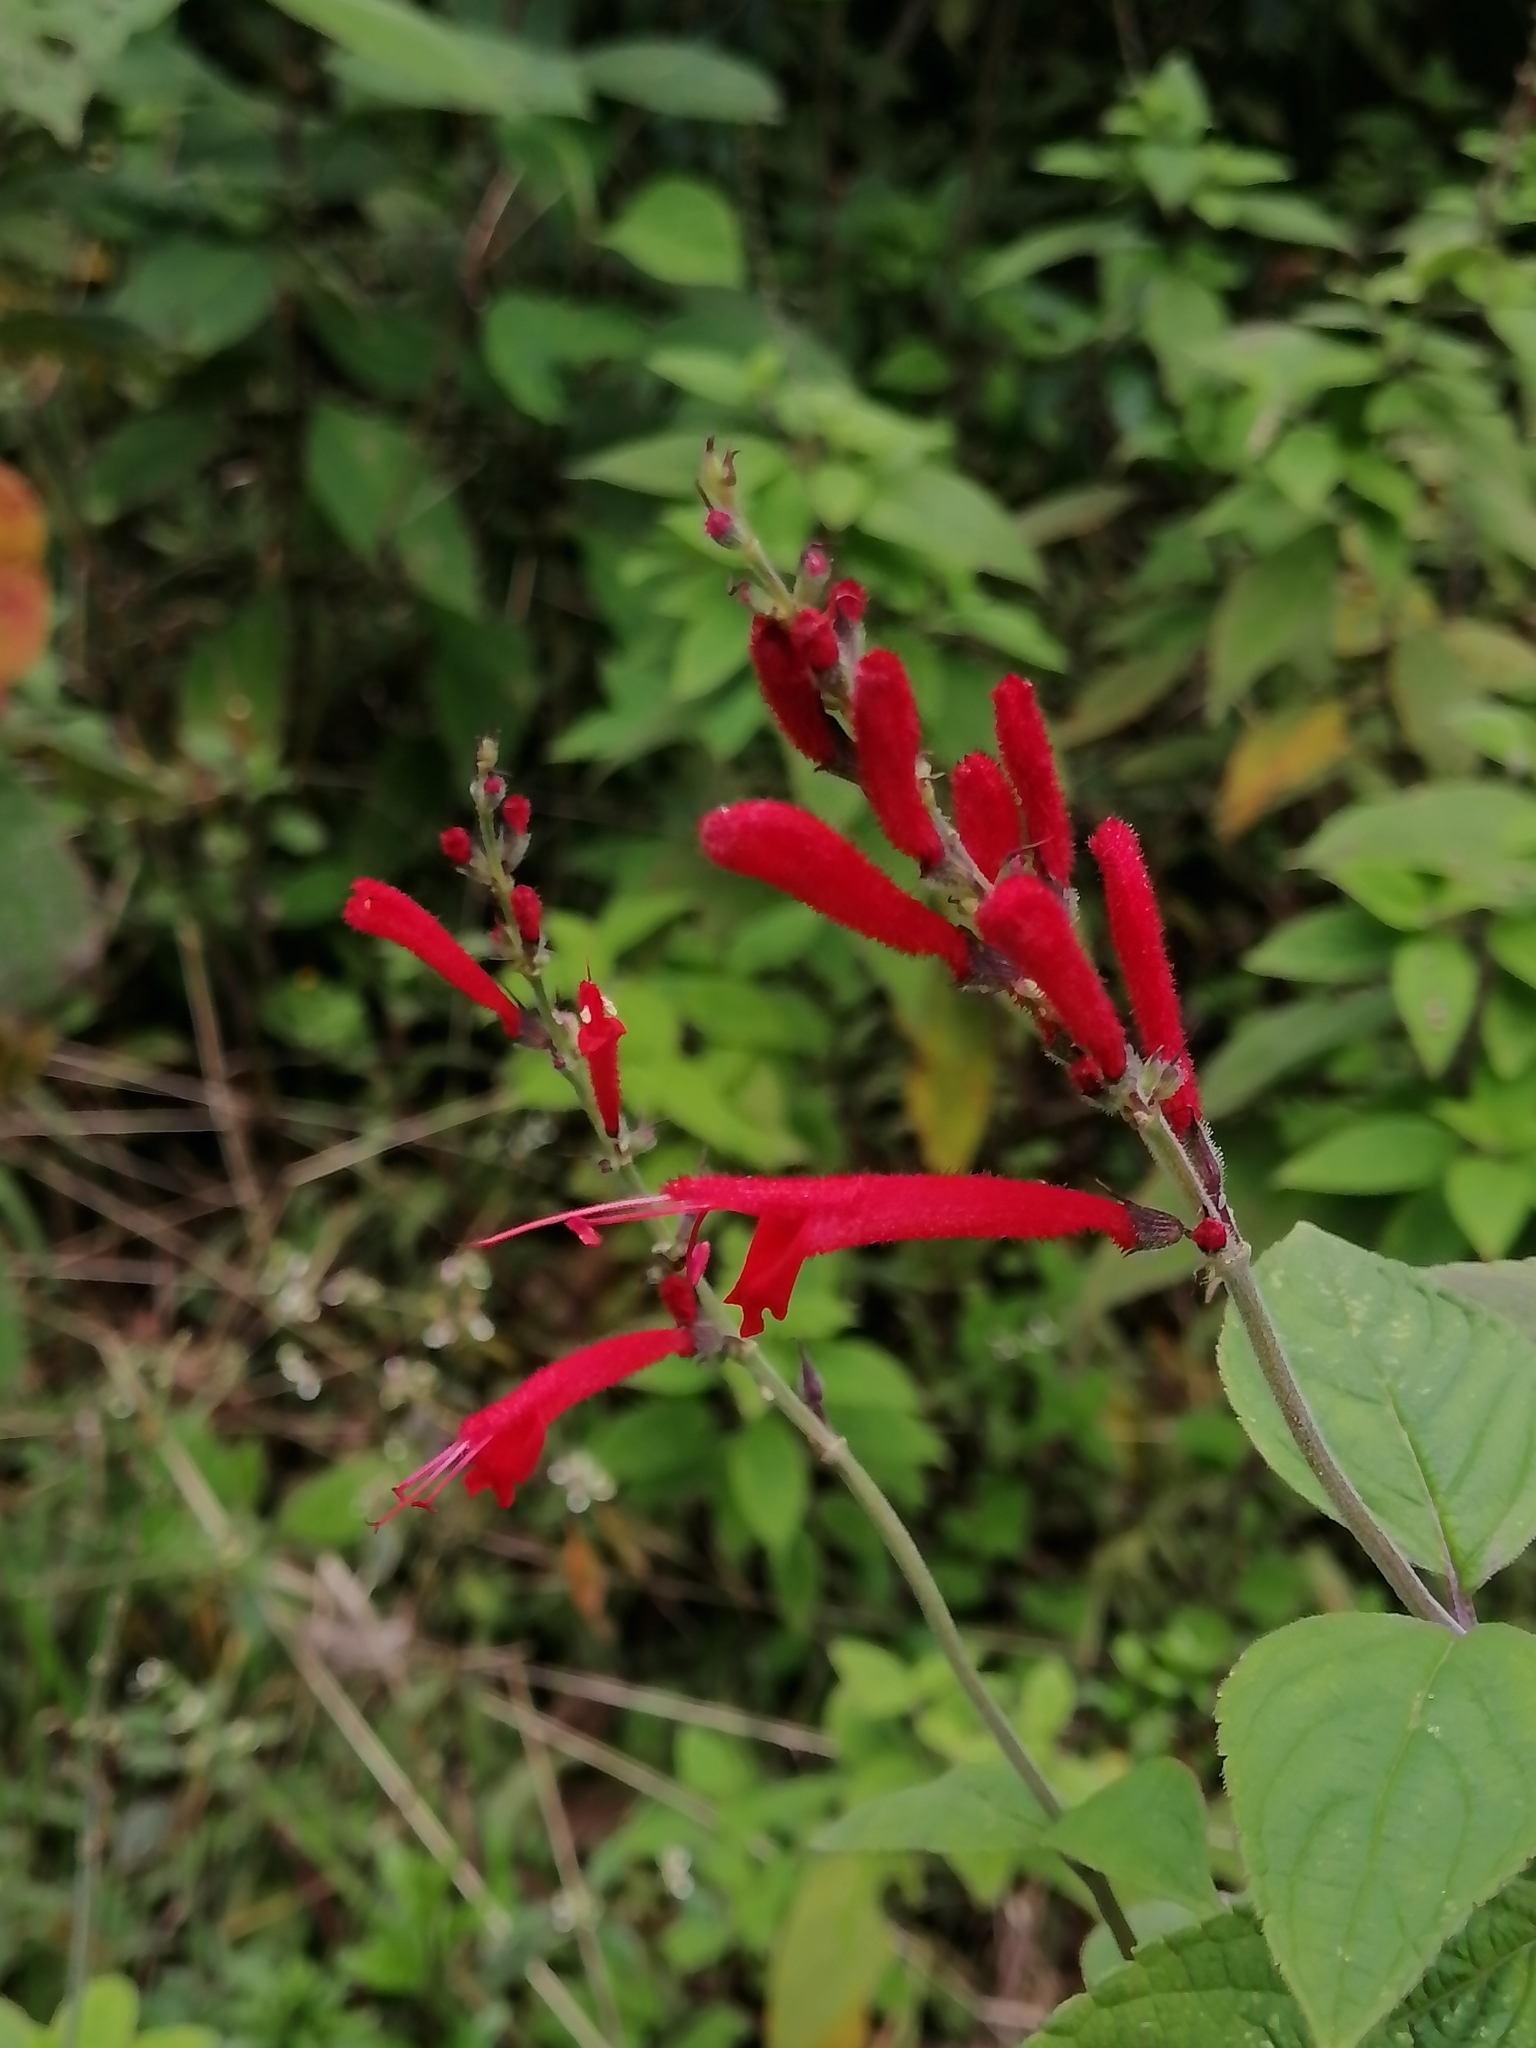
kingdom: Plantae
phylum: Tracheophyta
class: Magnoliopsida
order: Lamiales
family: Lamiaceae
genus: Salvia
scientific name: Salvia cinnabarina
